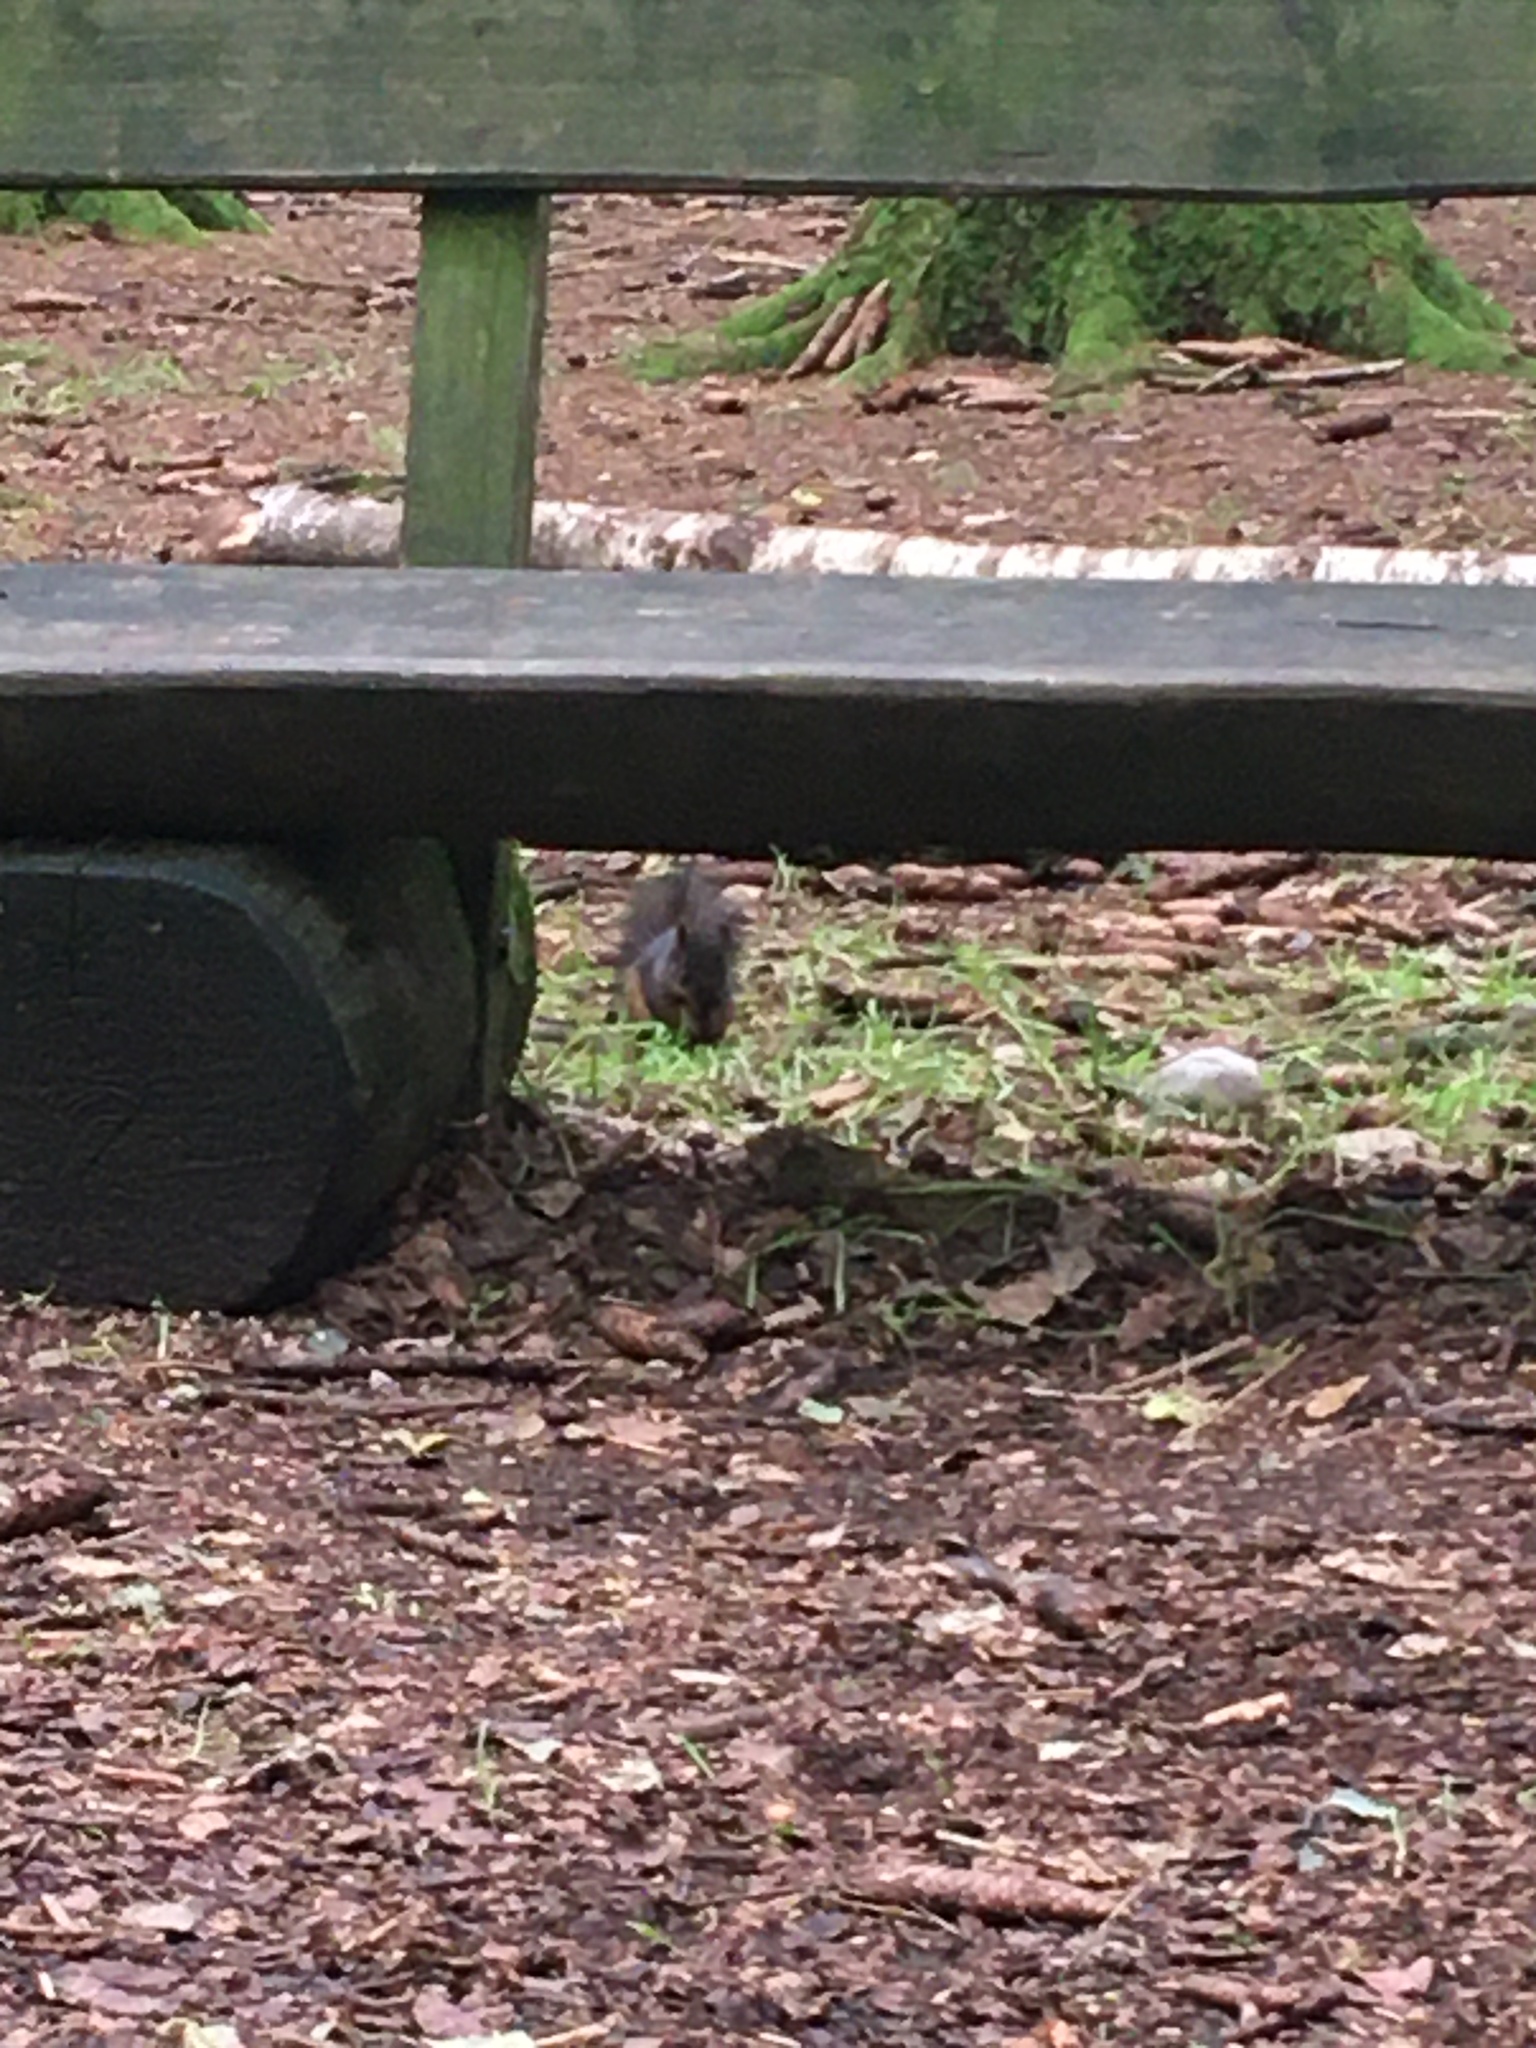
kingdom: Animalia
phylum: Chordata
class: Mammalia
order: Rodentia
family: Sciuridae
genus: Sciurus
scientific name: Sciurus vulgaris
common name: Eurasian red squirrel
